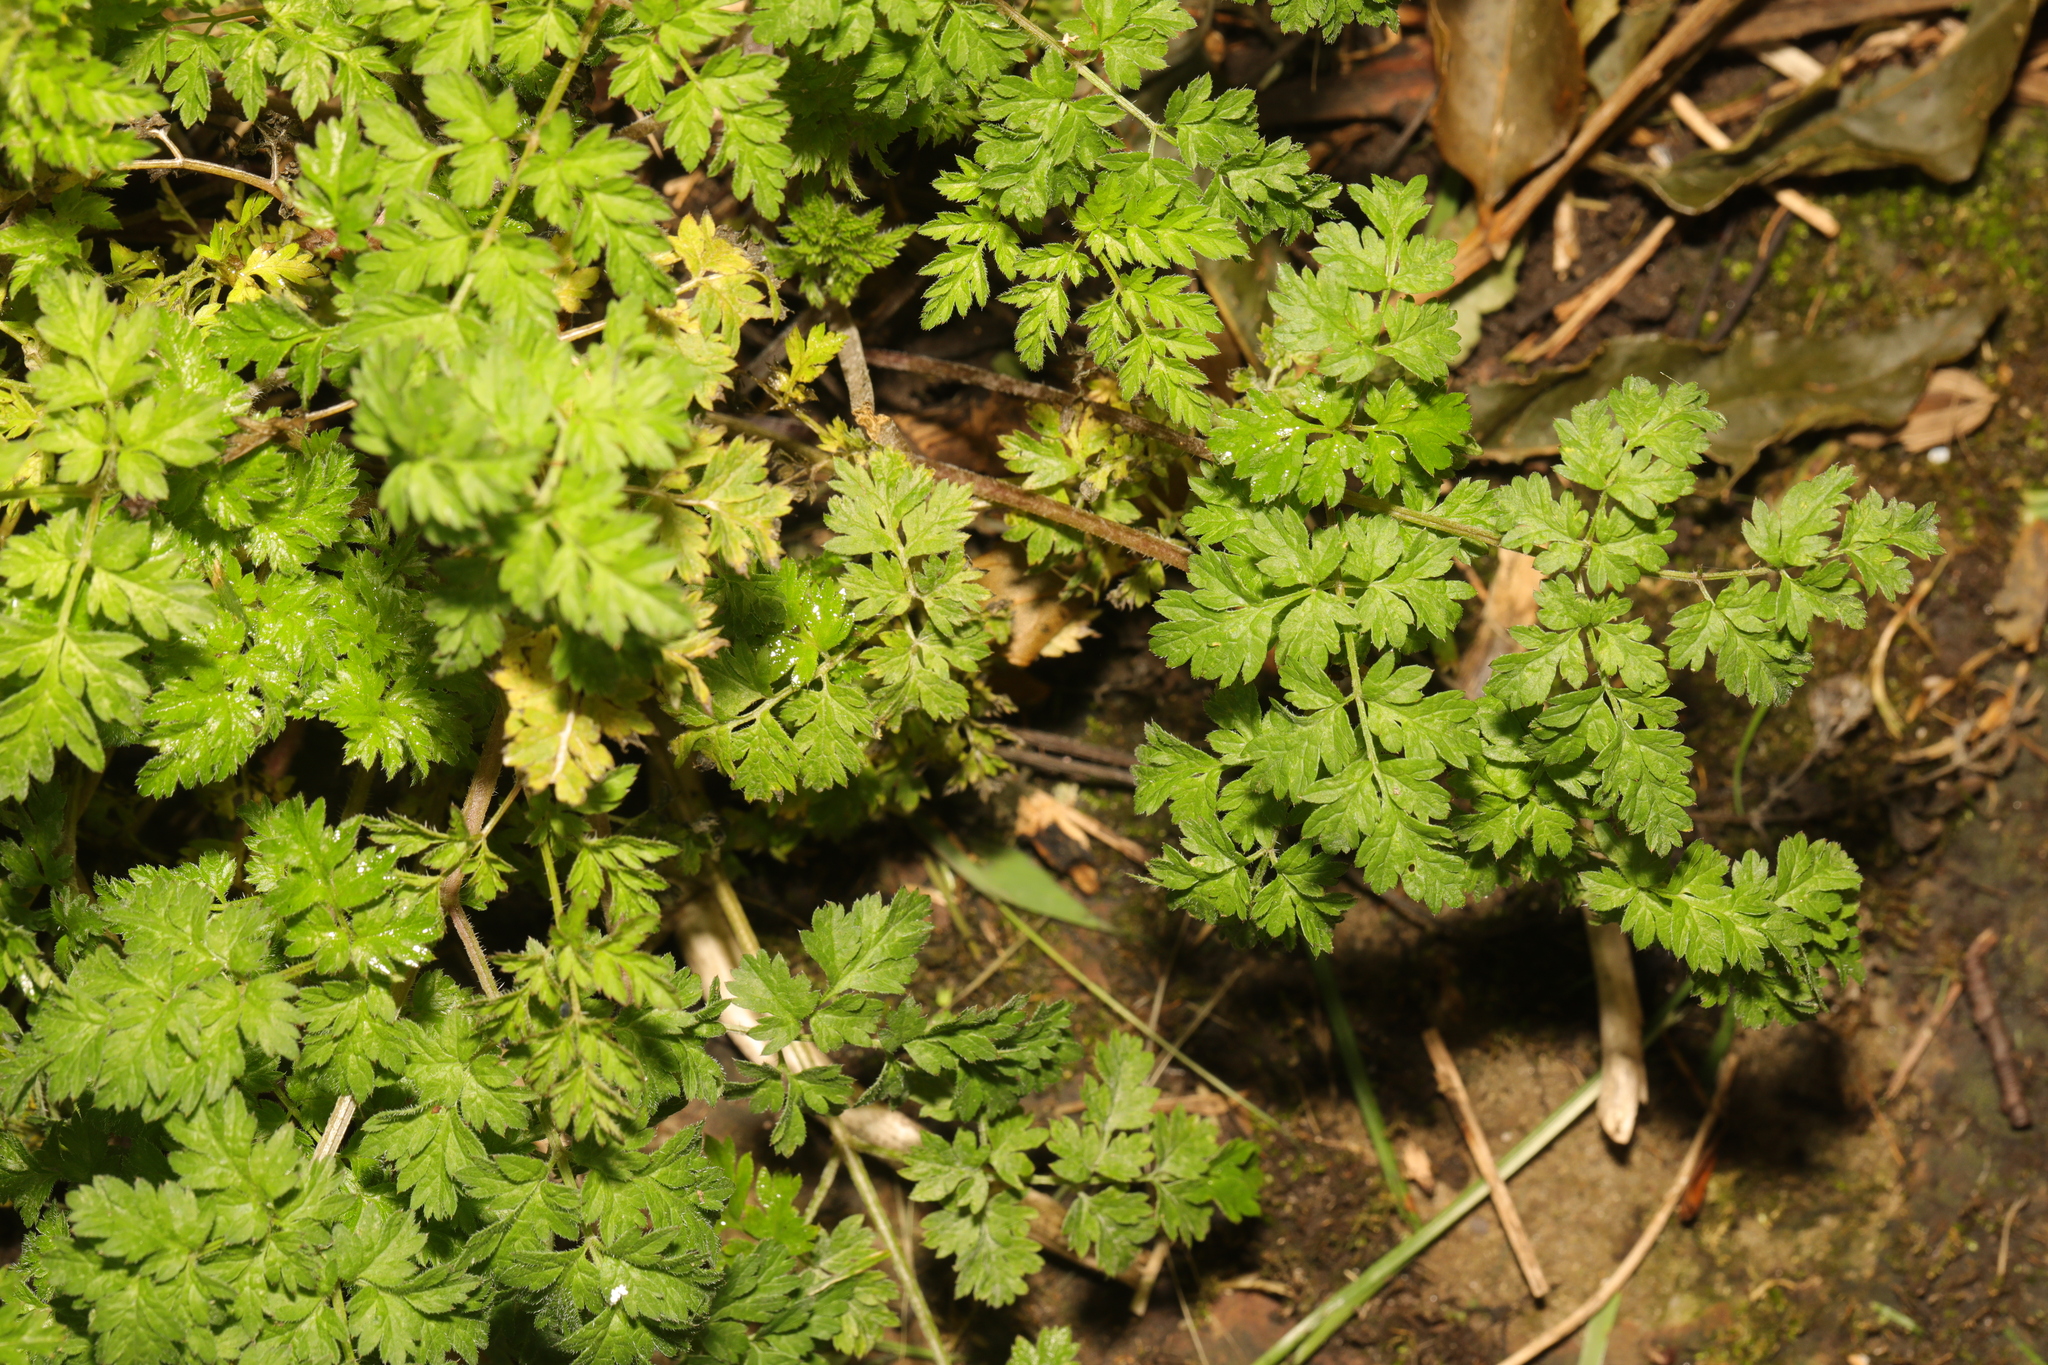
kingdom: Plantae
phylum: Tracheophyta
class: Magnoliopsida
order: Apiales
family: Apiaceae
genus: Anthriscus
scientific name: Anthriscus sylvestris
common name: Cow parsley
